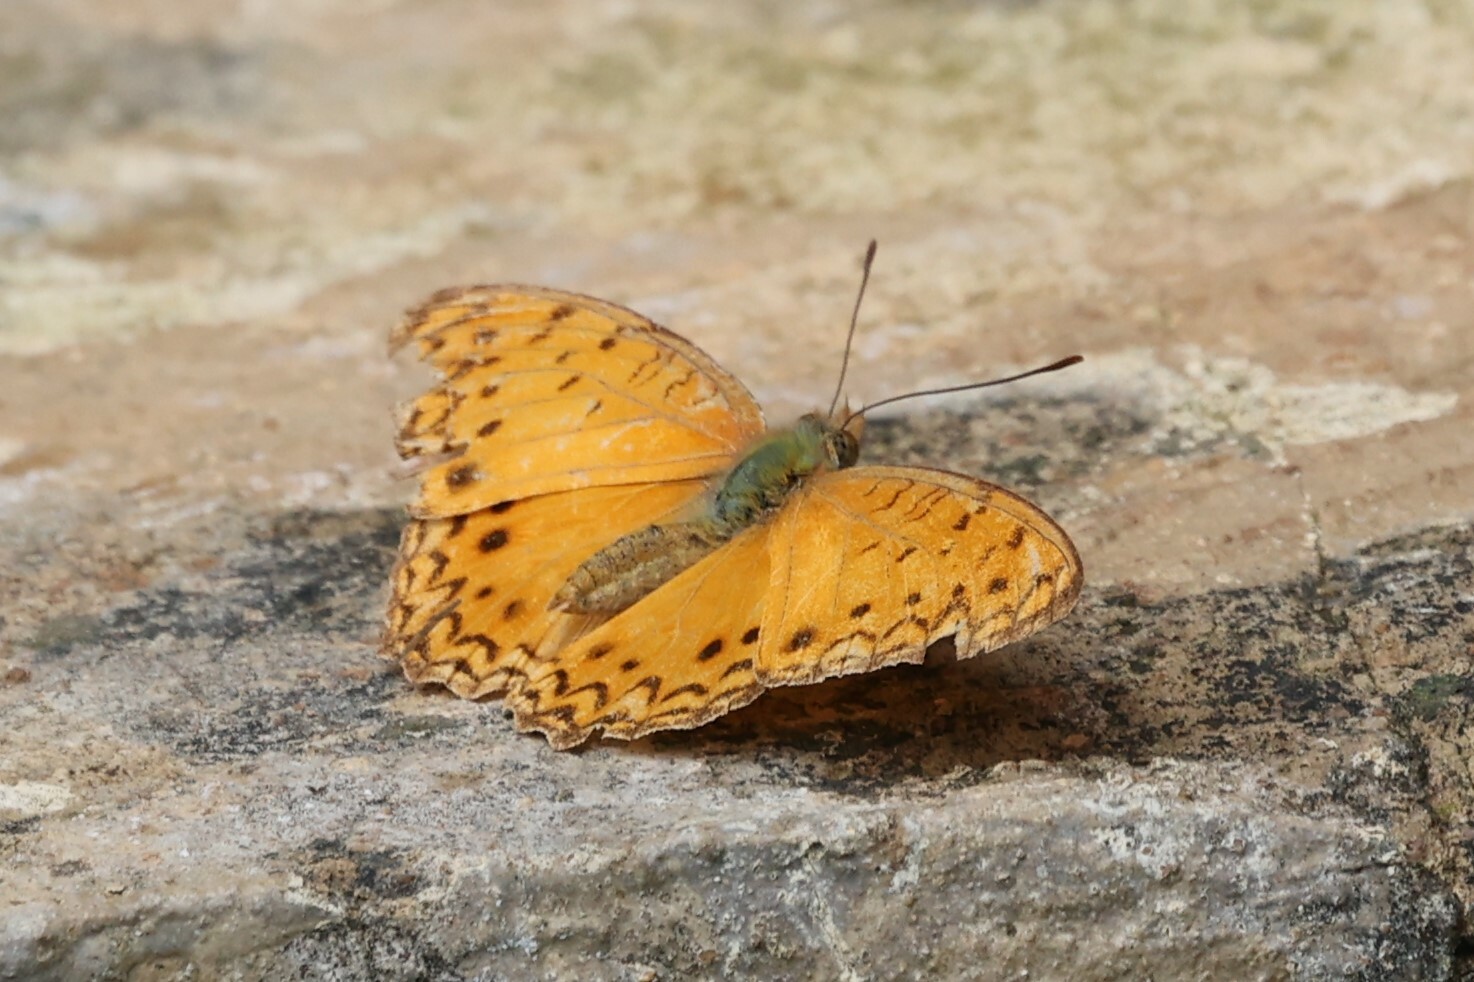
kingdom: Animalia
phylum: Arthropoda
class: Insecta
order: Lepidoptera
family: Nymphalidae
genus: Phalanta
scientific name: Phalanta phalantha
